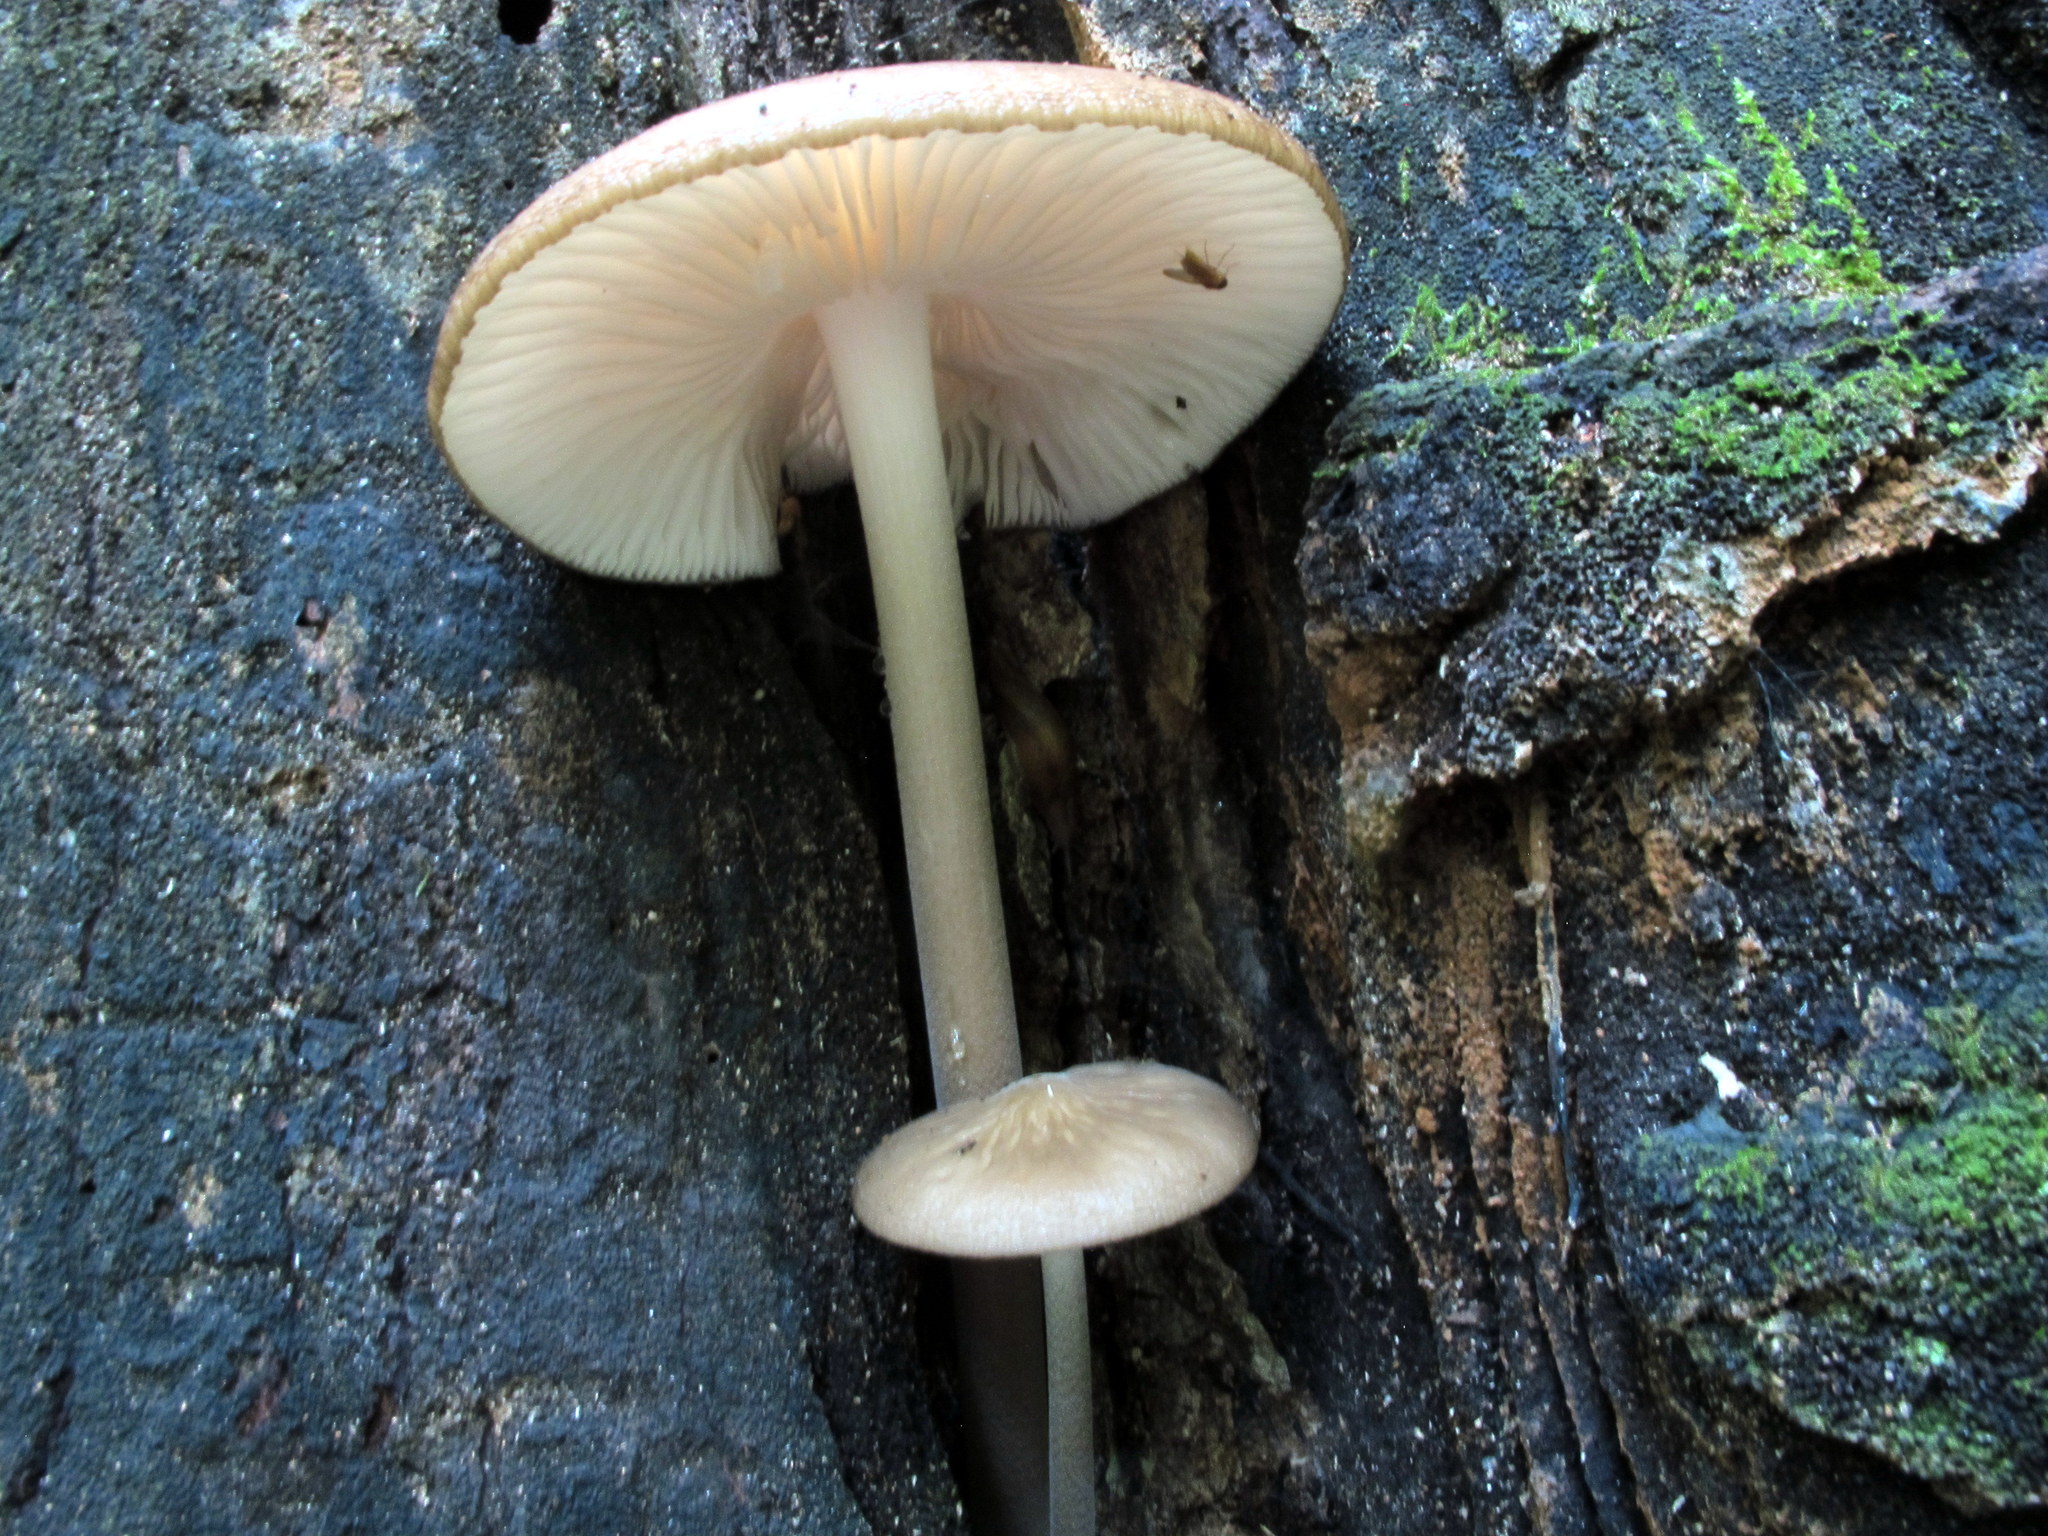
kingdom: Fungi
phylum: Basidiomycota
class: Agaricomycetes
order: Agaricales
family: Physalacriaceae
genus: Hymenopellis
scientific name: Hymenopellis furfuracea
